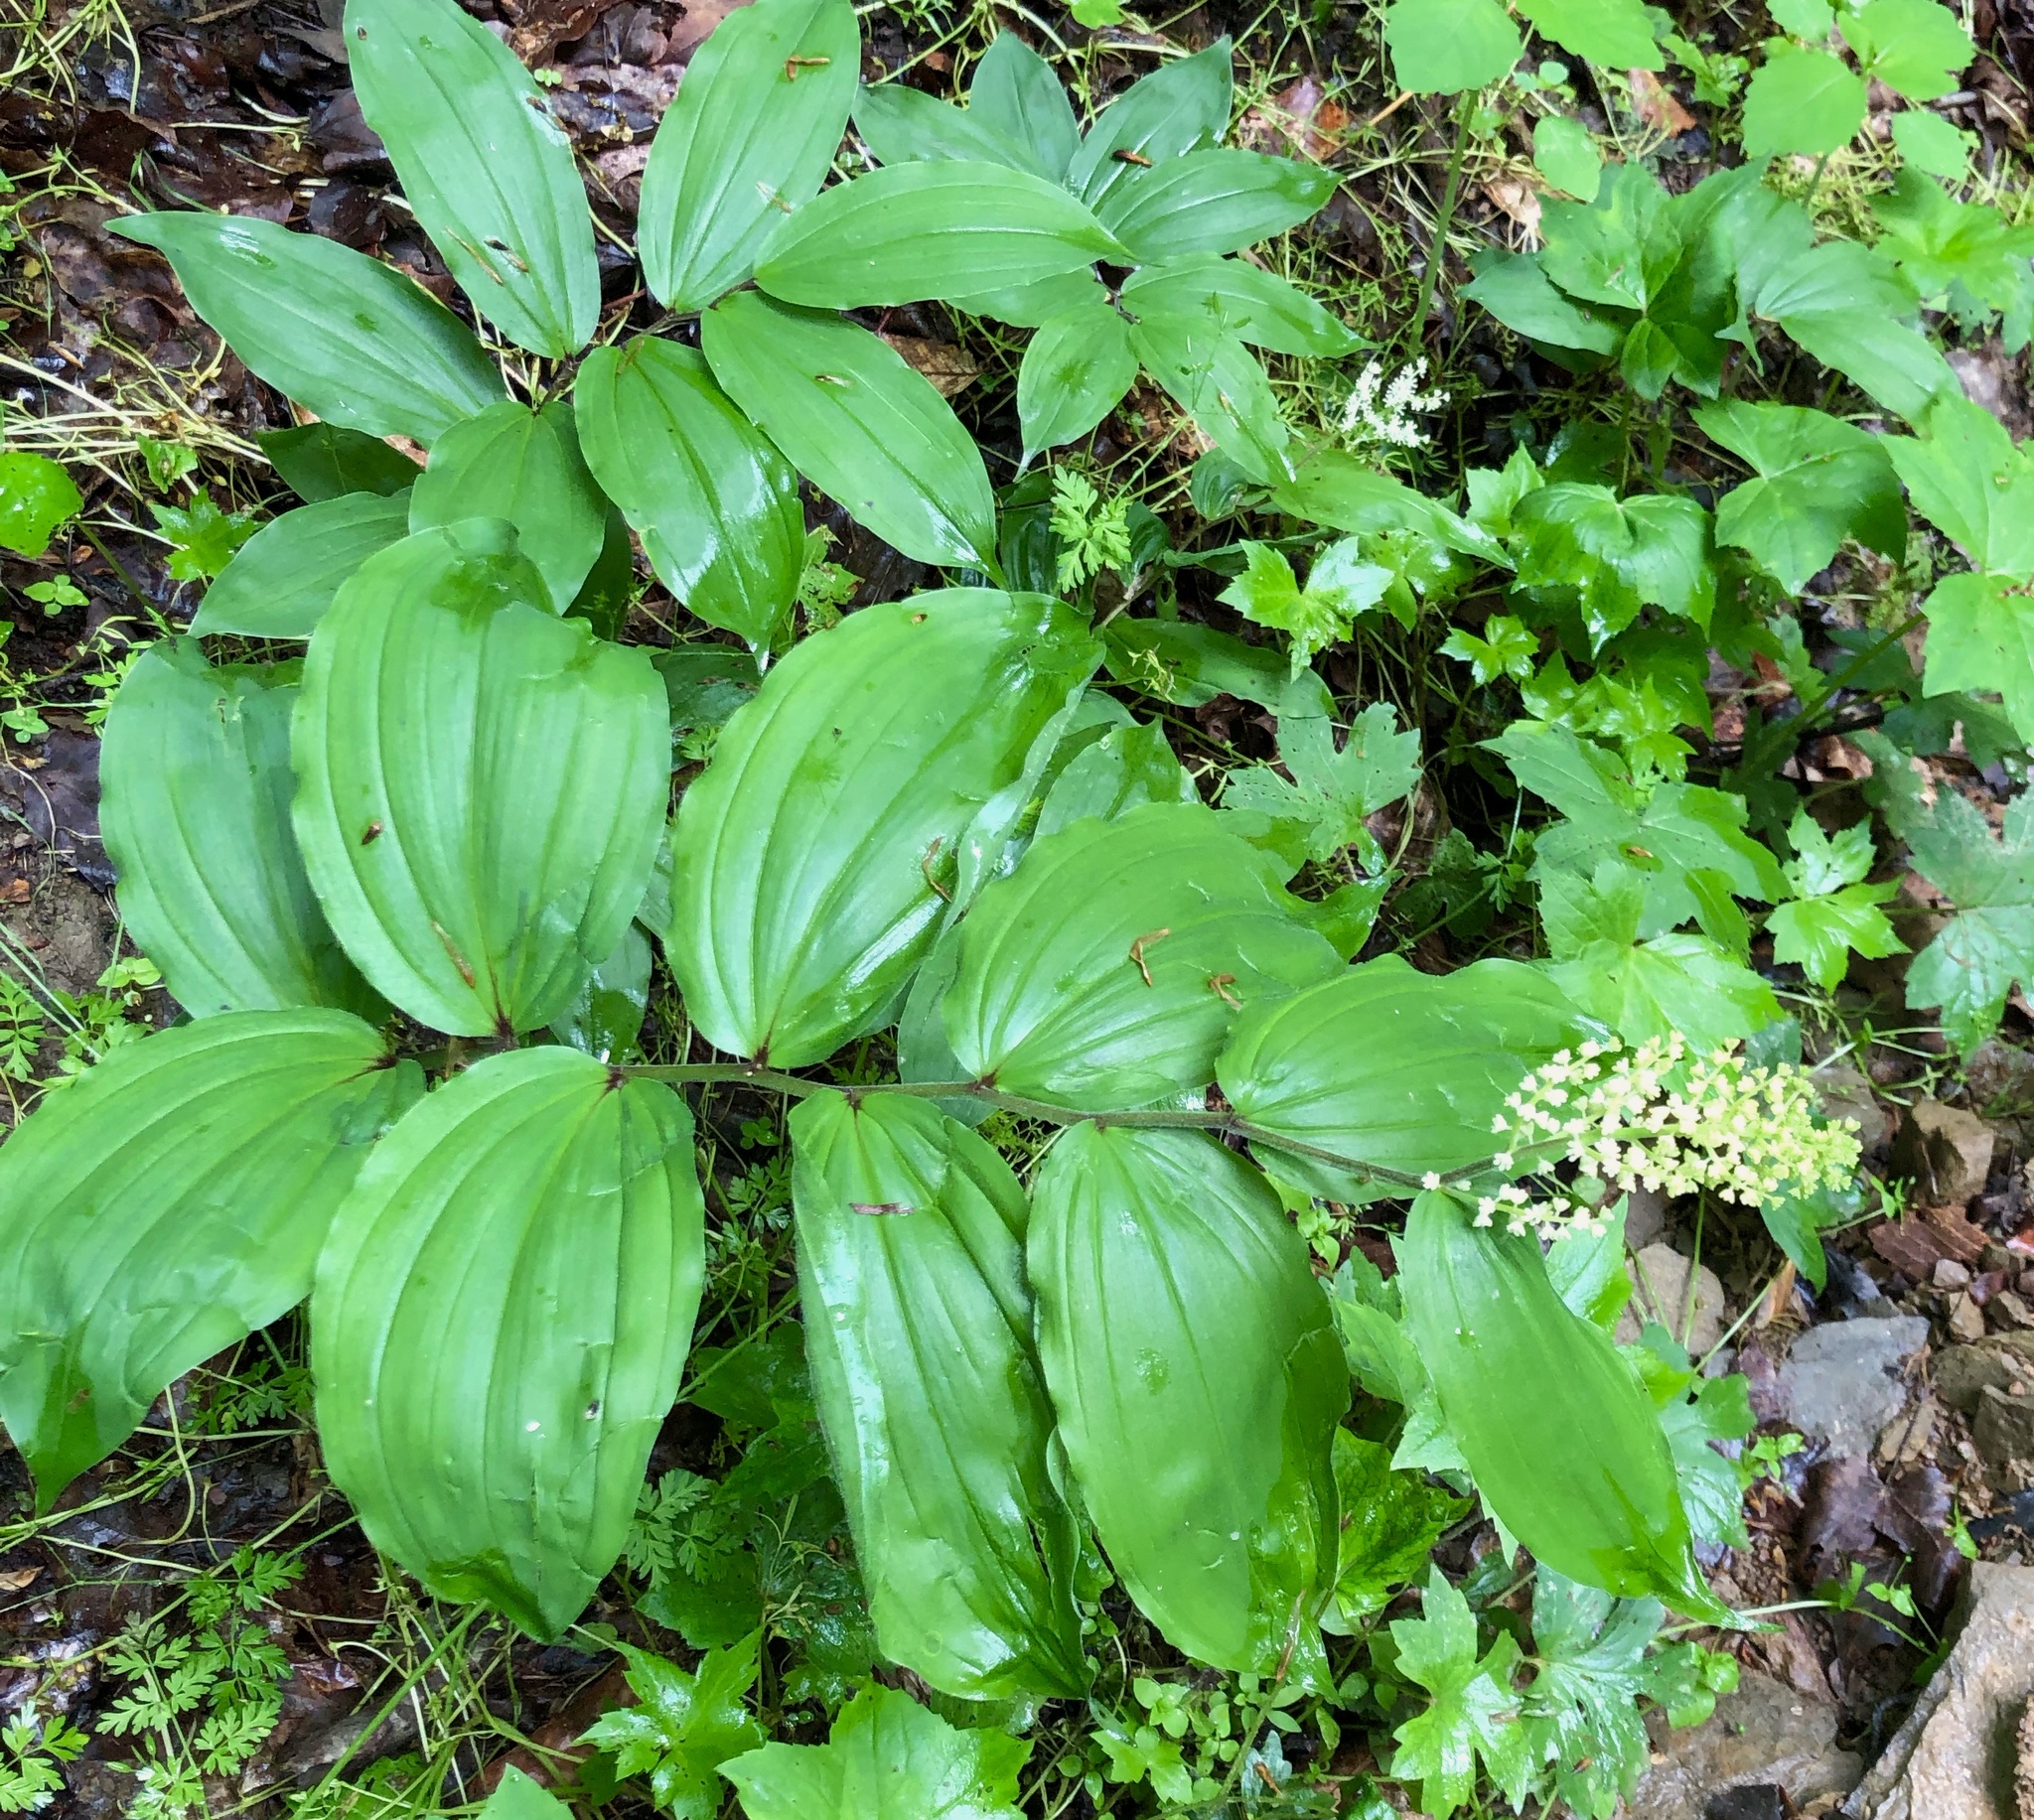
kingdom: Plantae
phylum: Tracheophyta
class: Liliopsida
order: Asparagales
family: Asparagaceae
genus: Maianthemum
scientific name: Maianthemum racemosum
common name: False spikenard
